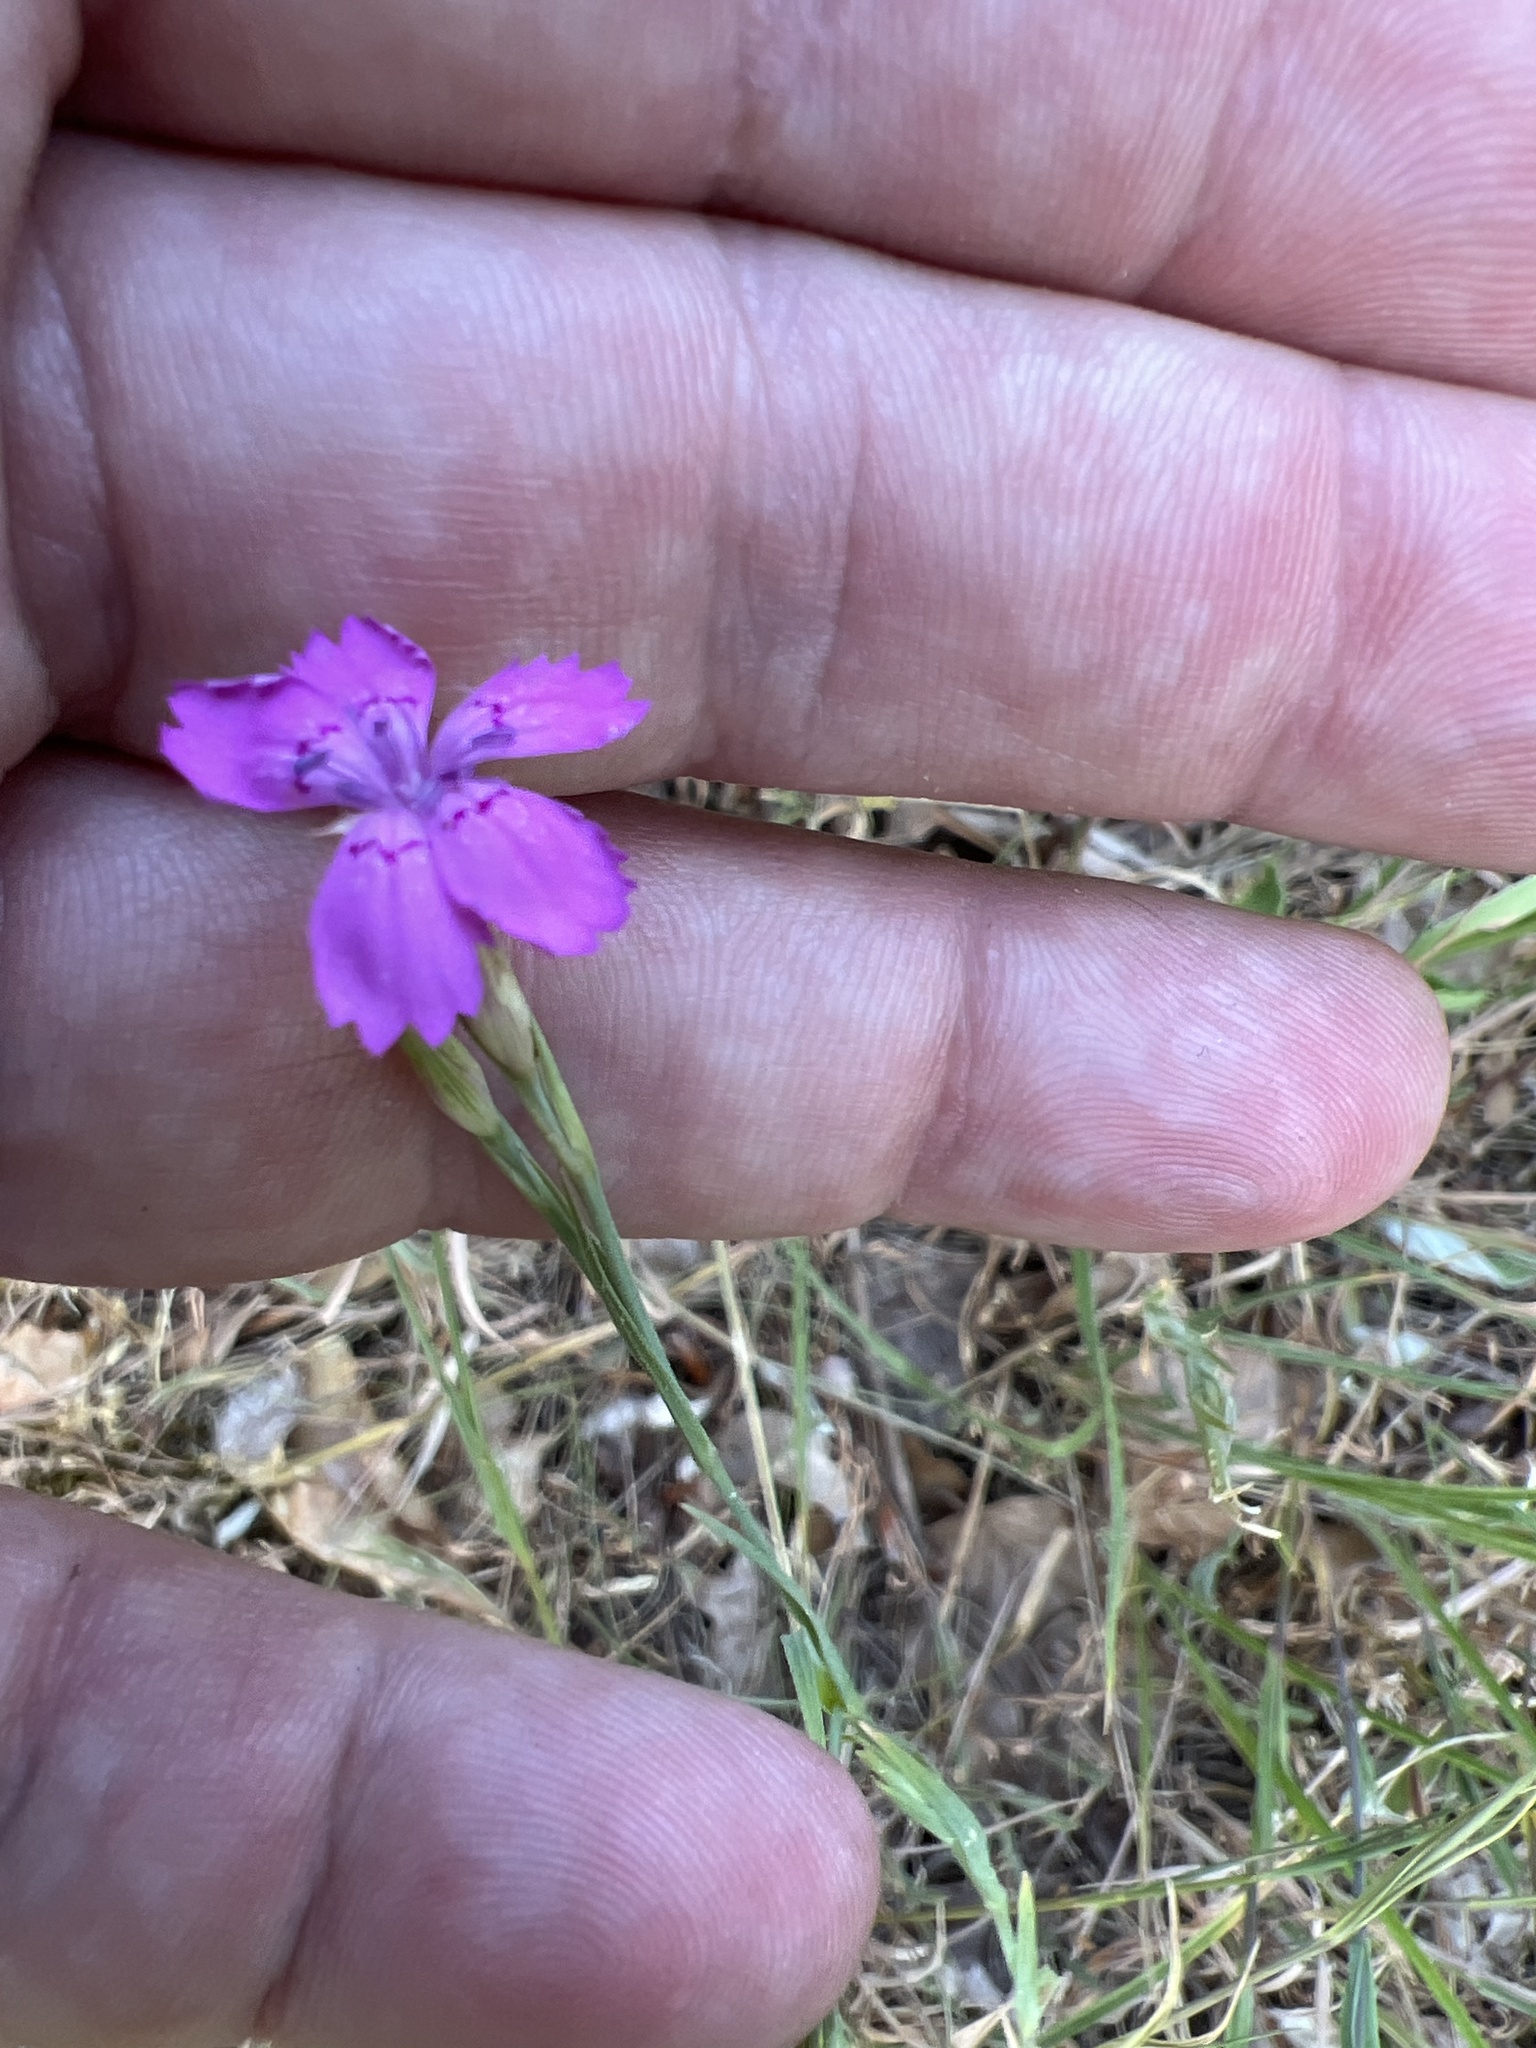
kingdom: Plantae
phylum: Tracheophyta
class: Magnoliopsida
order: Caryophyllales
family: Caryophyllaceae
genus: Dianthus
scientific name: Dianthus deltoides
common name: Maiden pink
